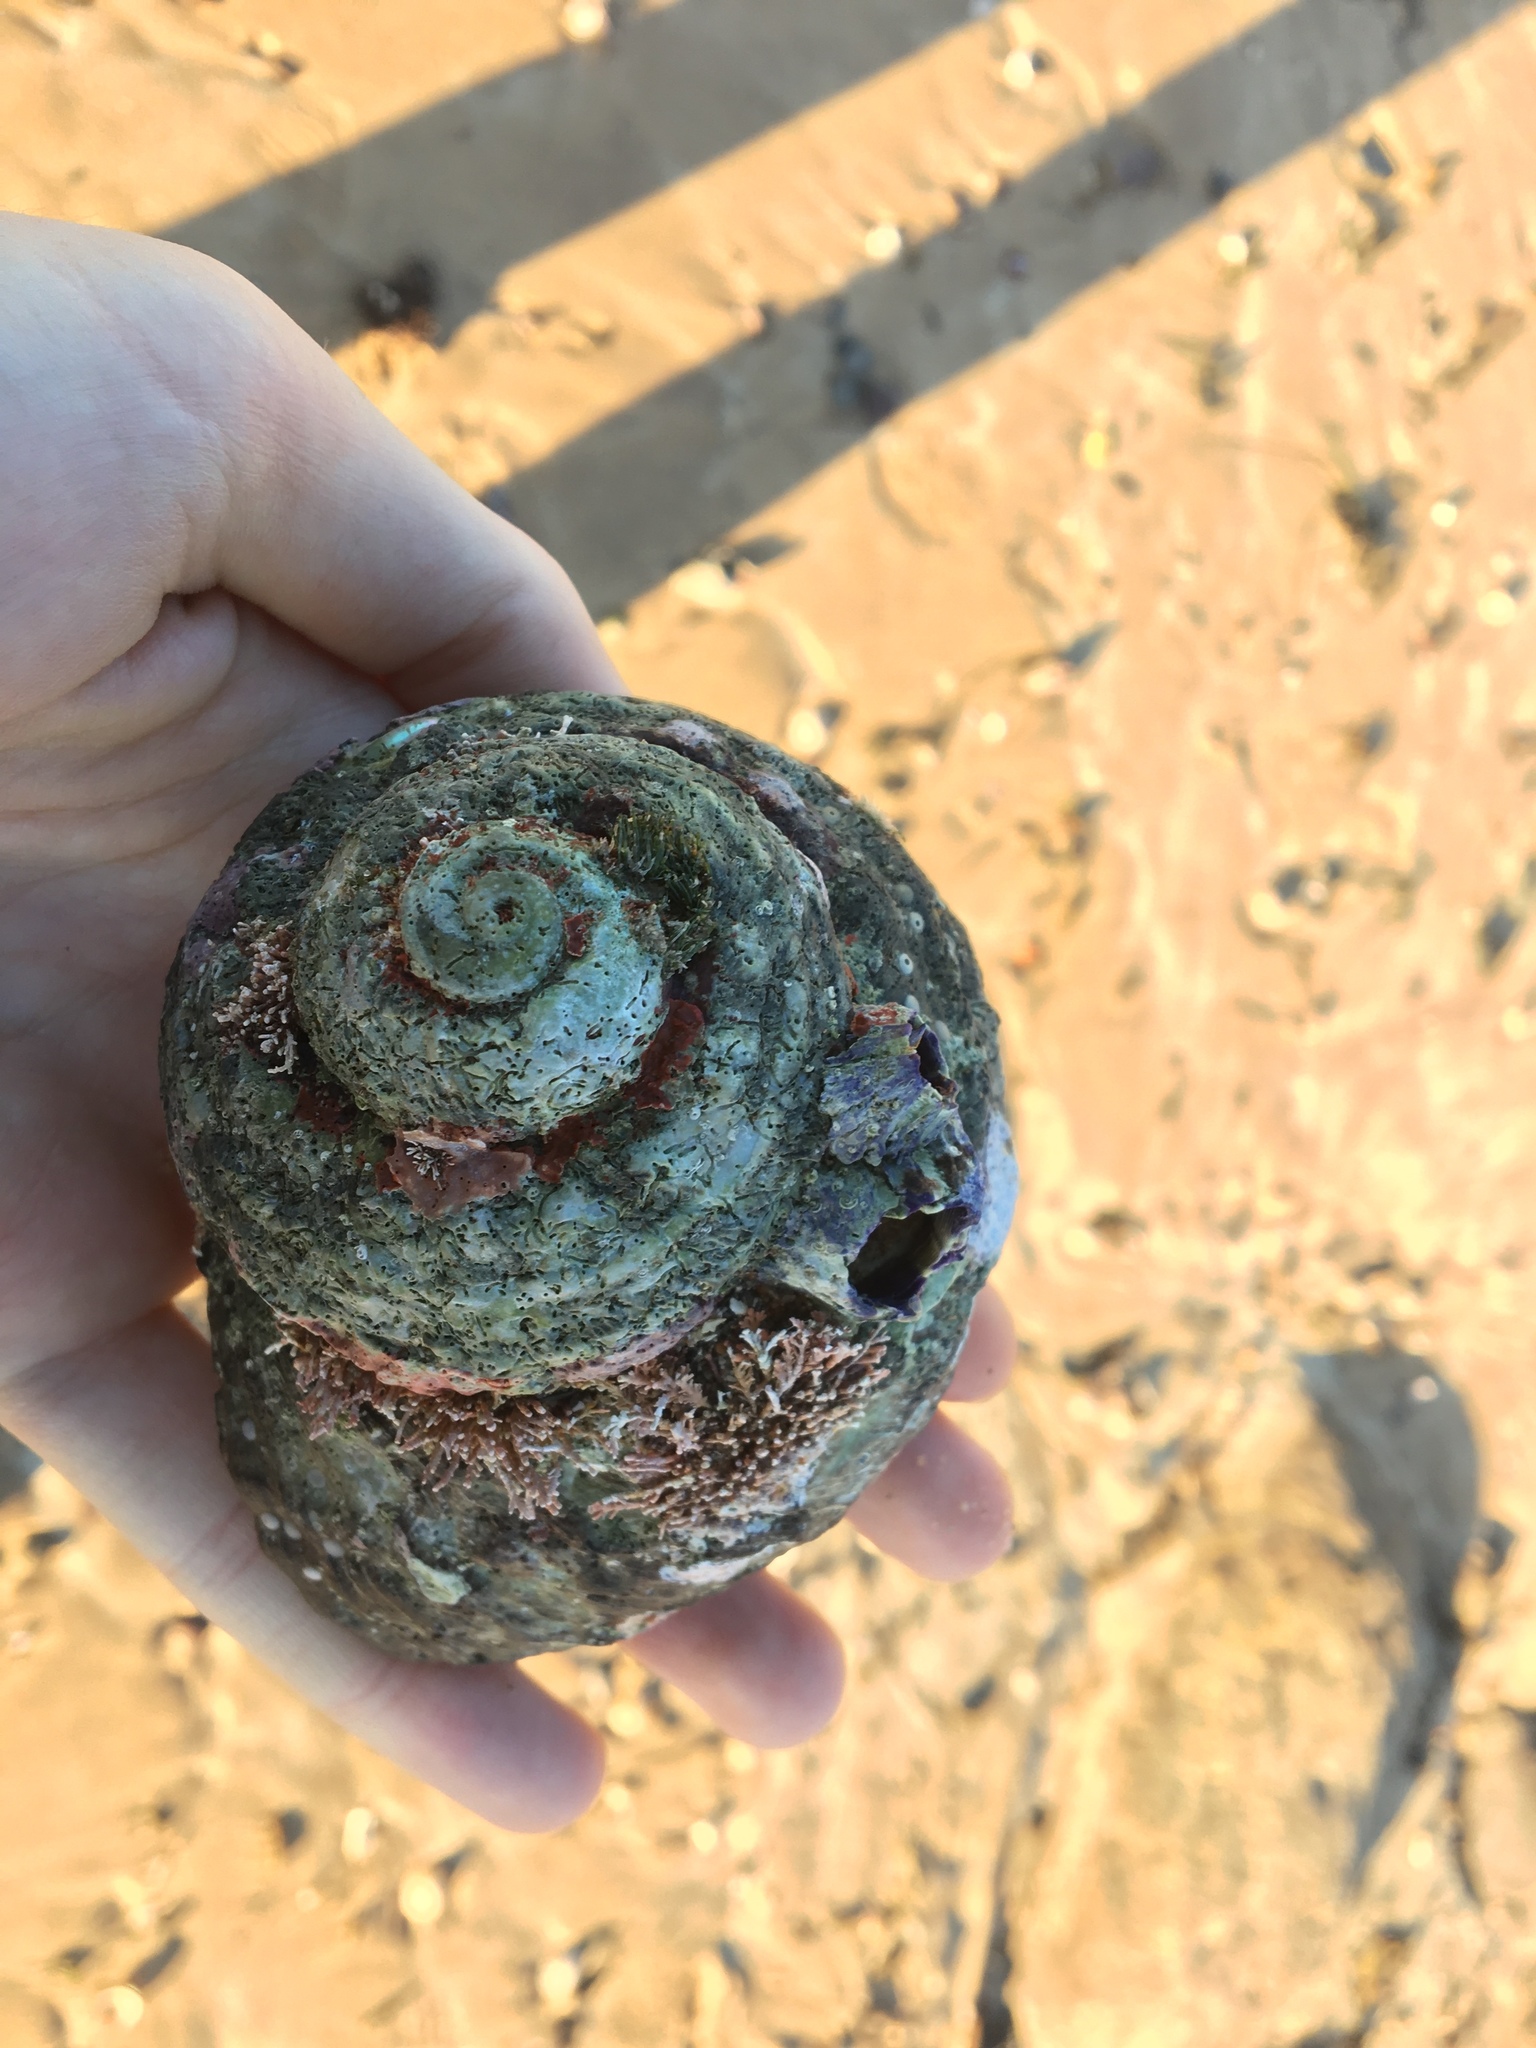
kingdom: Animalia
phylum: Mollusca
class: Gastropoda
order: Trochida
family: Turbinidae
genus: Lunella
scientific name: Lunella torquata
